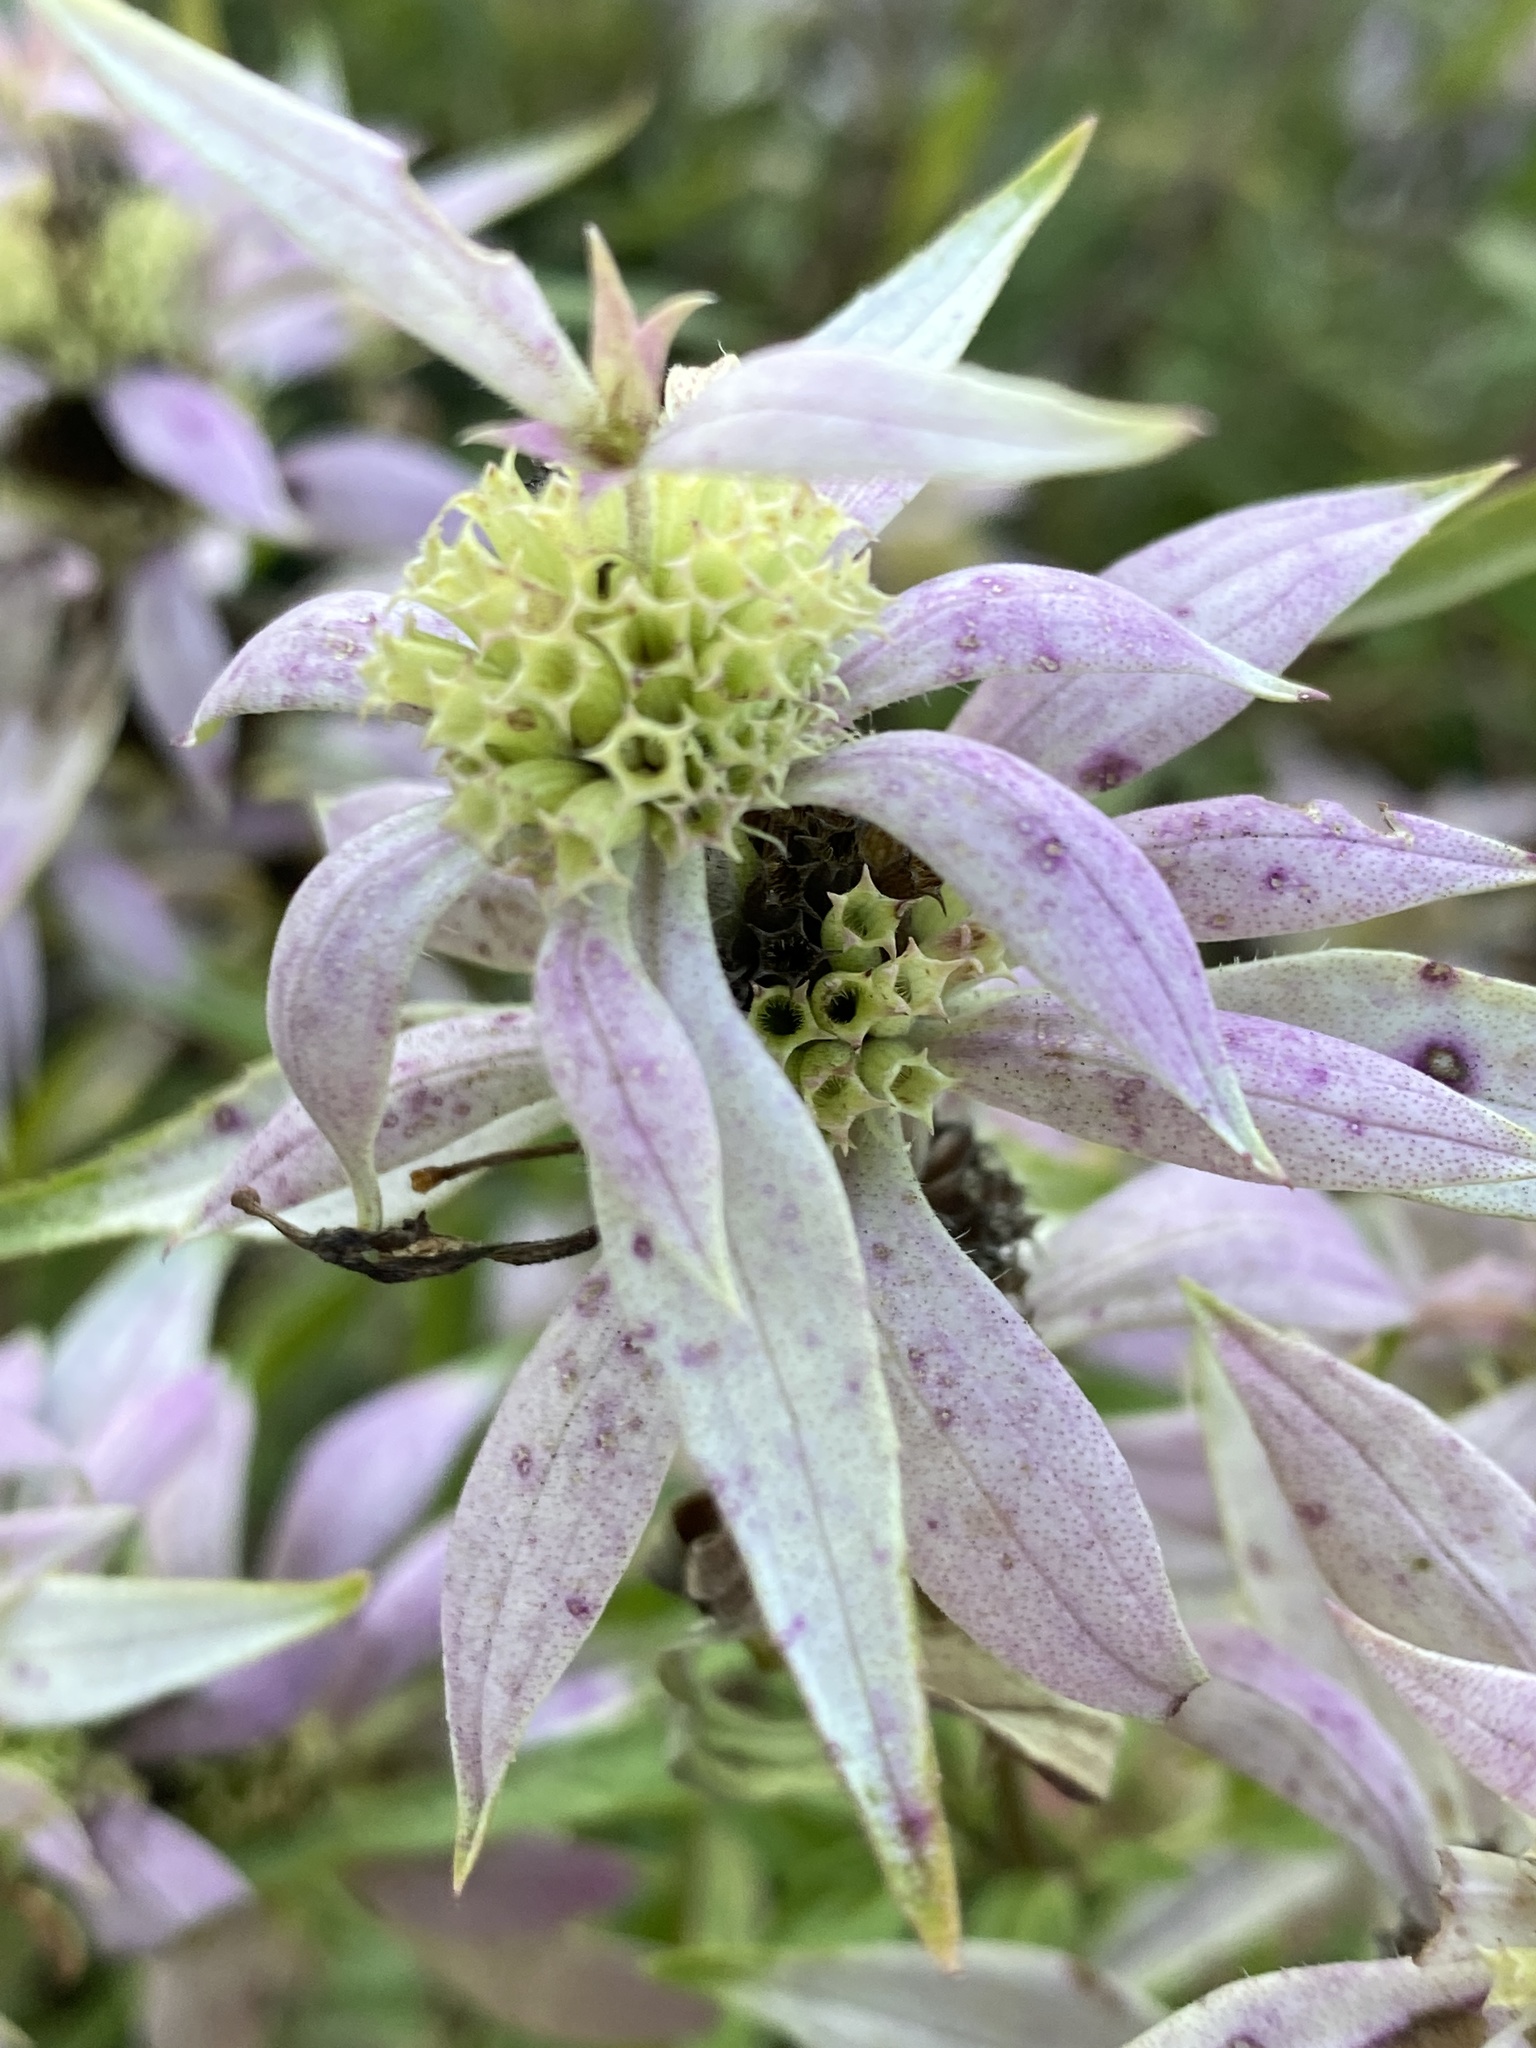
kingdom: Plantae
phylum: Tracheophyta
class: Magnoliopsida
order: Lamiales
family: Lamiaceae
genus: Monarda
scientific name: Monarda punctata
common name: Dotted monarda
